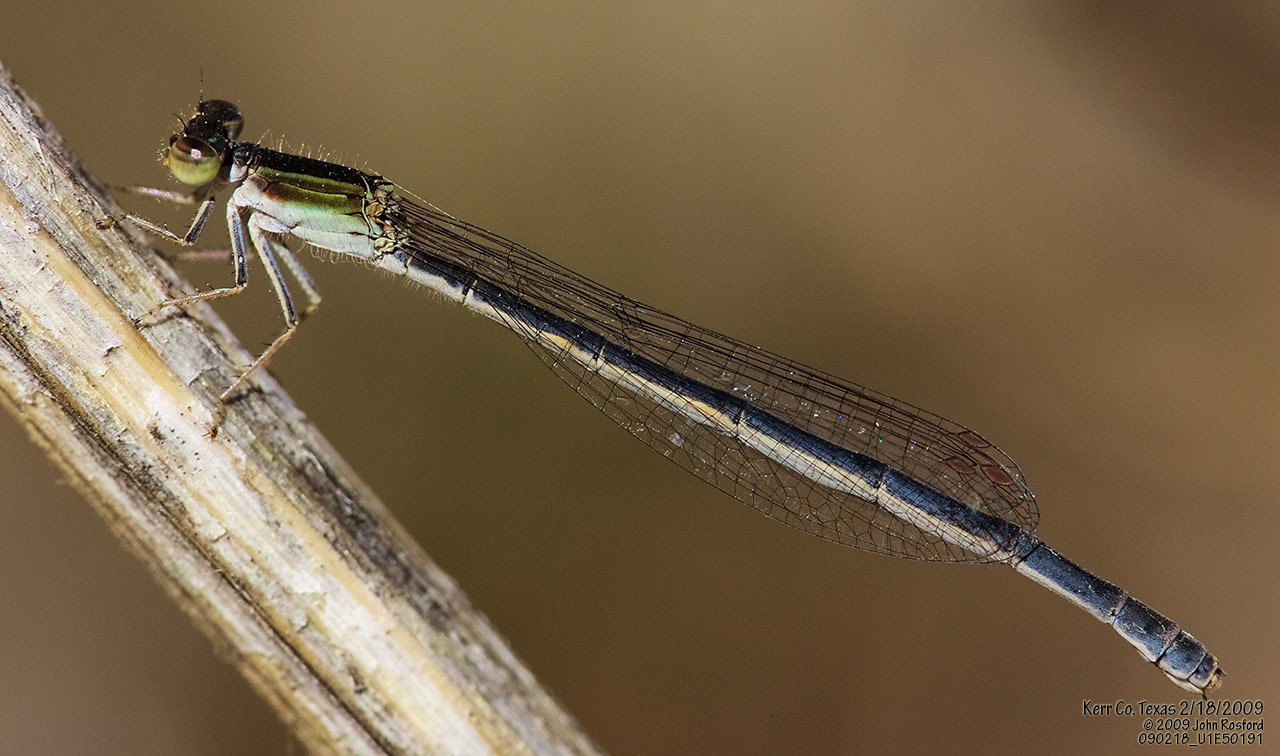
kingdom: Animalia
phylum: Arthropoda
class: Insecta
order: Odonata
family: Coenagrionidae
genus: Ischnura
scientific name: Ischnura hastata
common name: Citrine forktail
